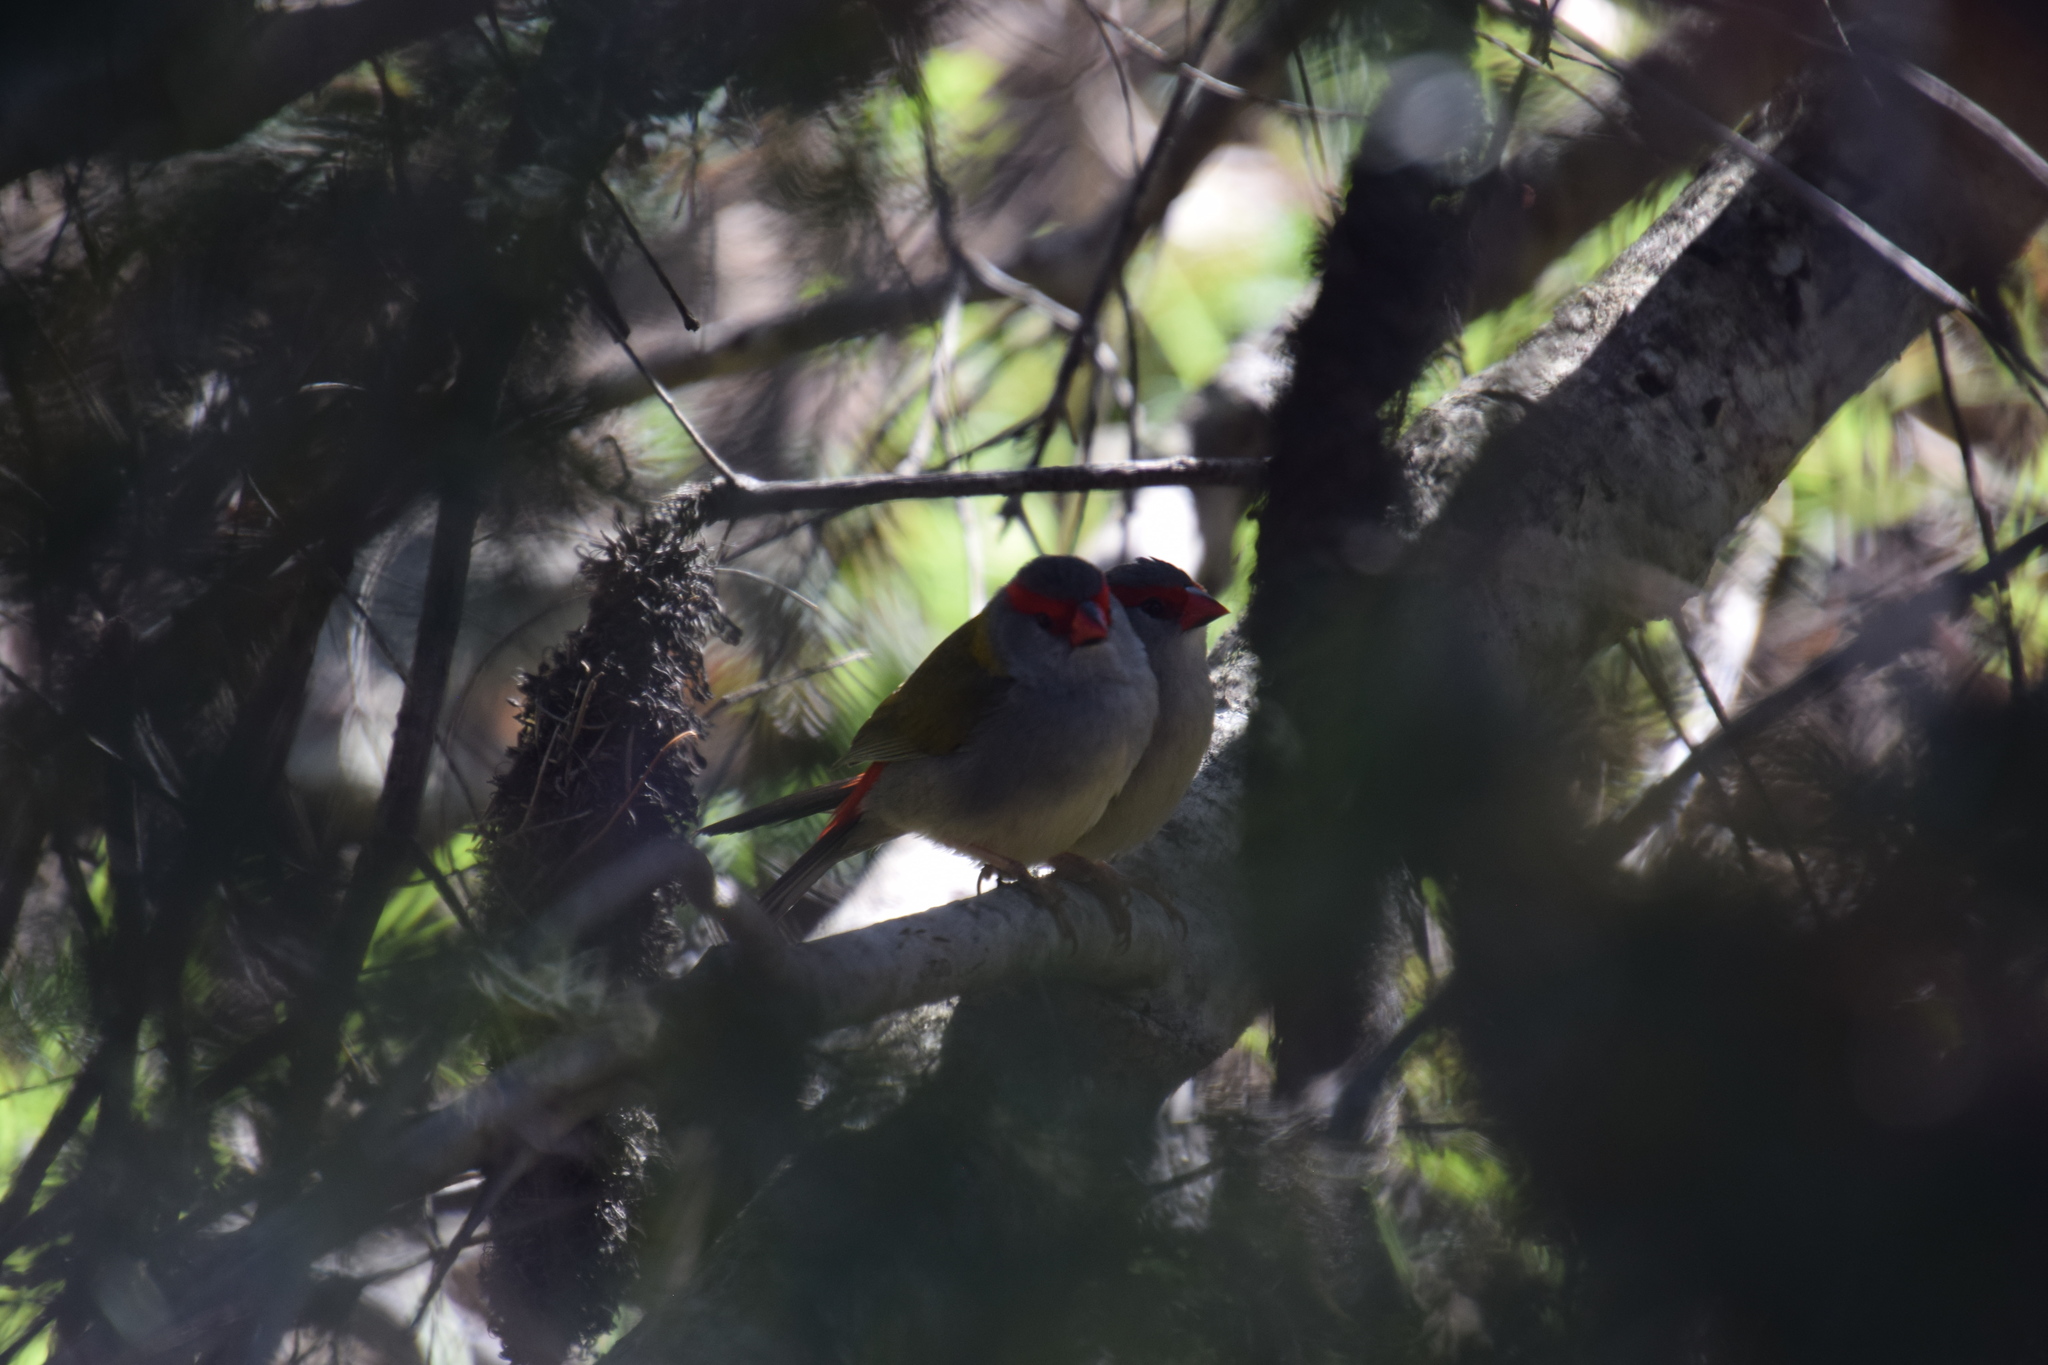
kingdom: Animalia
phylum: Chordata
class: Aves
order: Passeriformes
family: Estrildidae
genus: Neochmia
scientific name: Neochmia temporalis
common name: Red-browed finch
